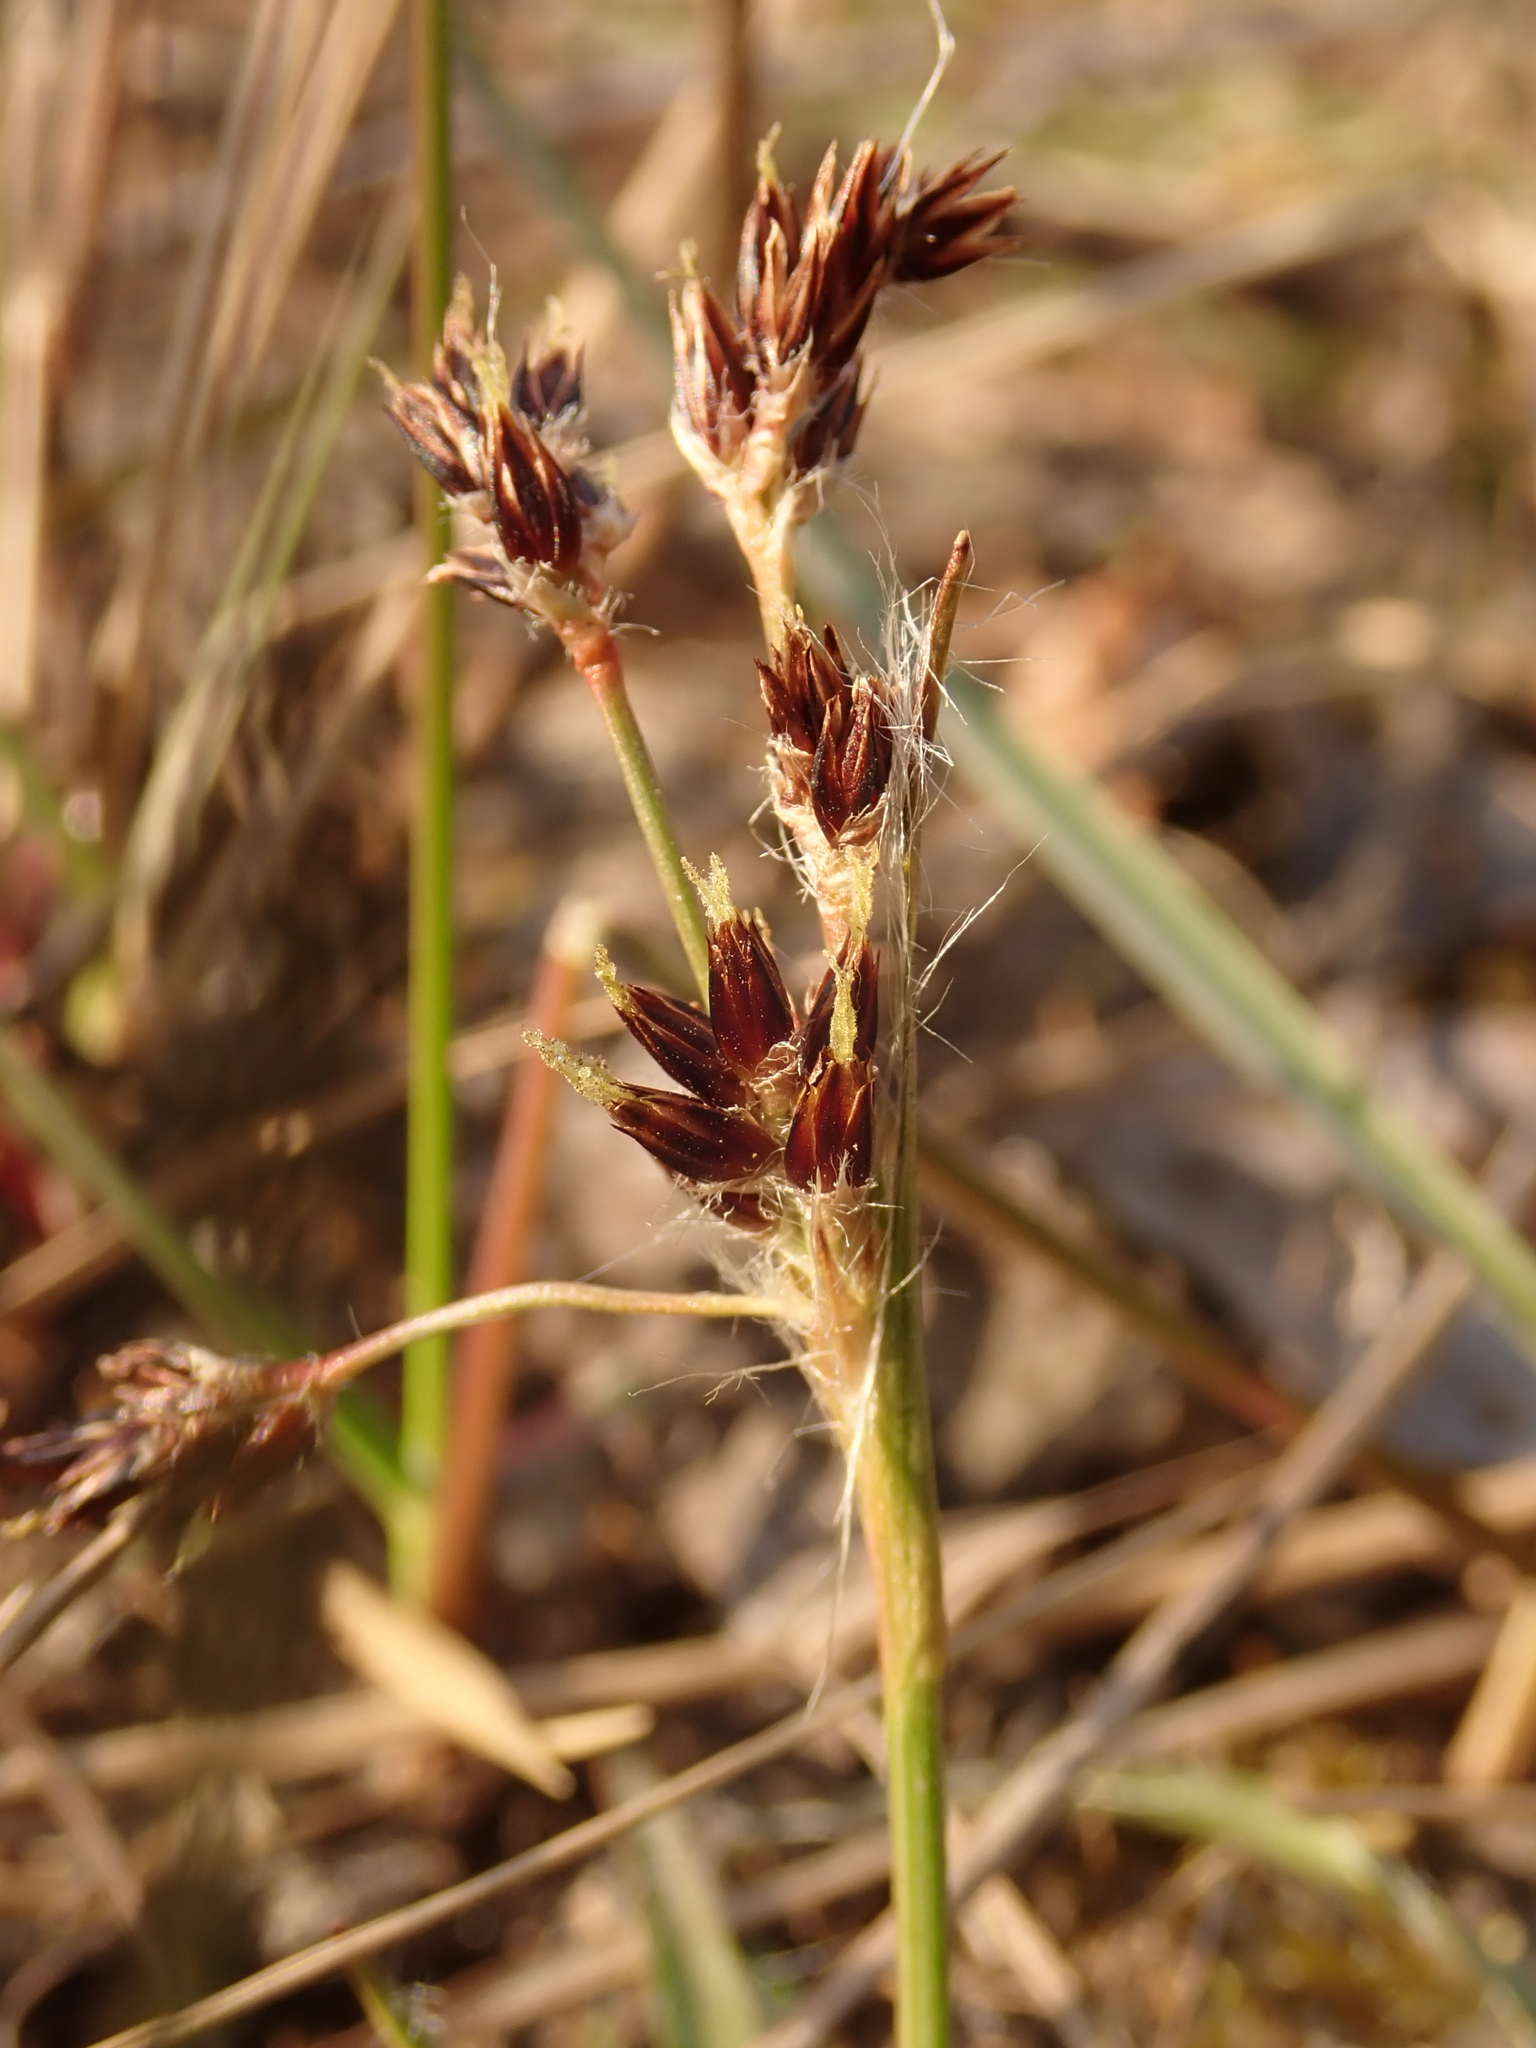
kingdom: Plantae
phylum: Tracheophyta
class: Liliopsida
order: Poales
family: Juncaceae
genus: Luzula
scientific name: Luzula campestris
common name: Field wood-rush
